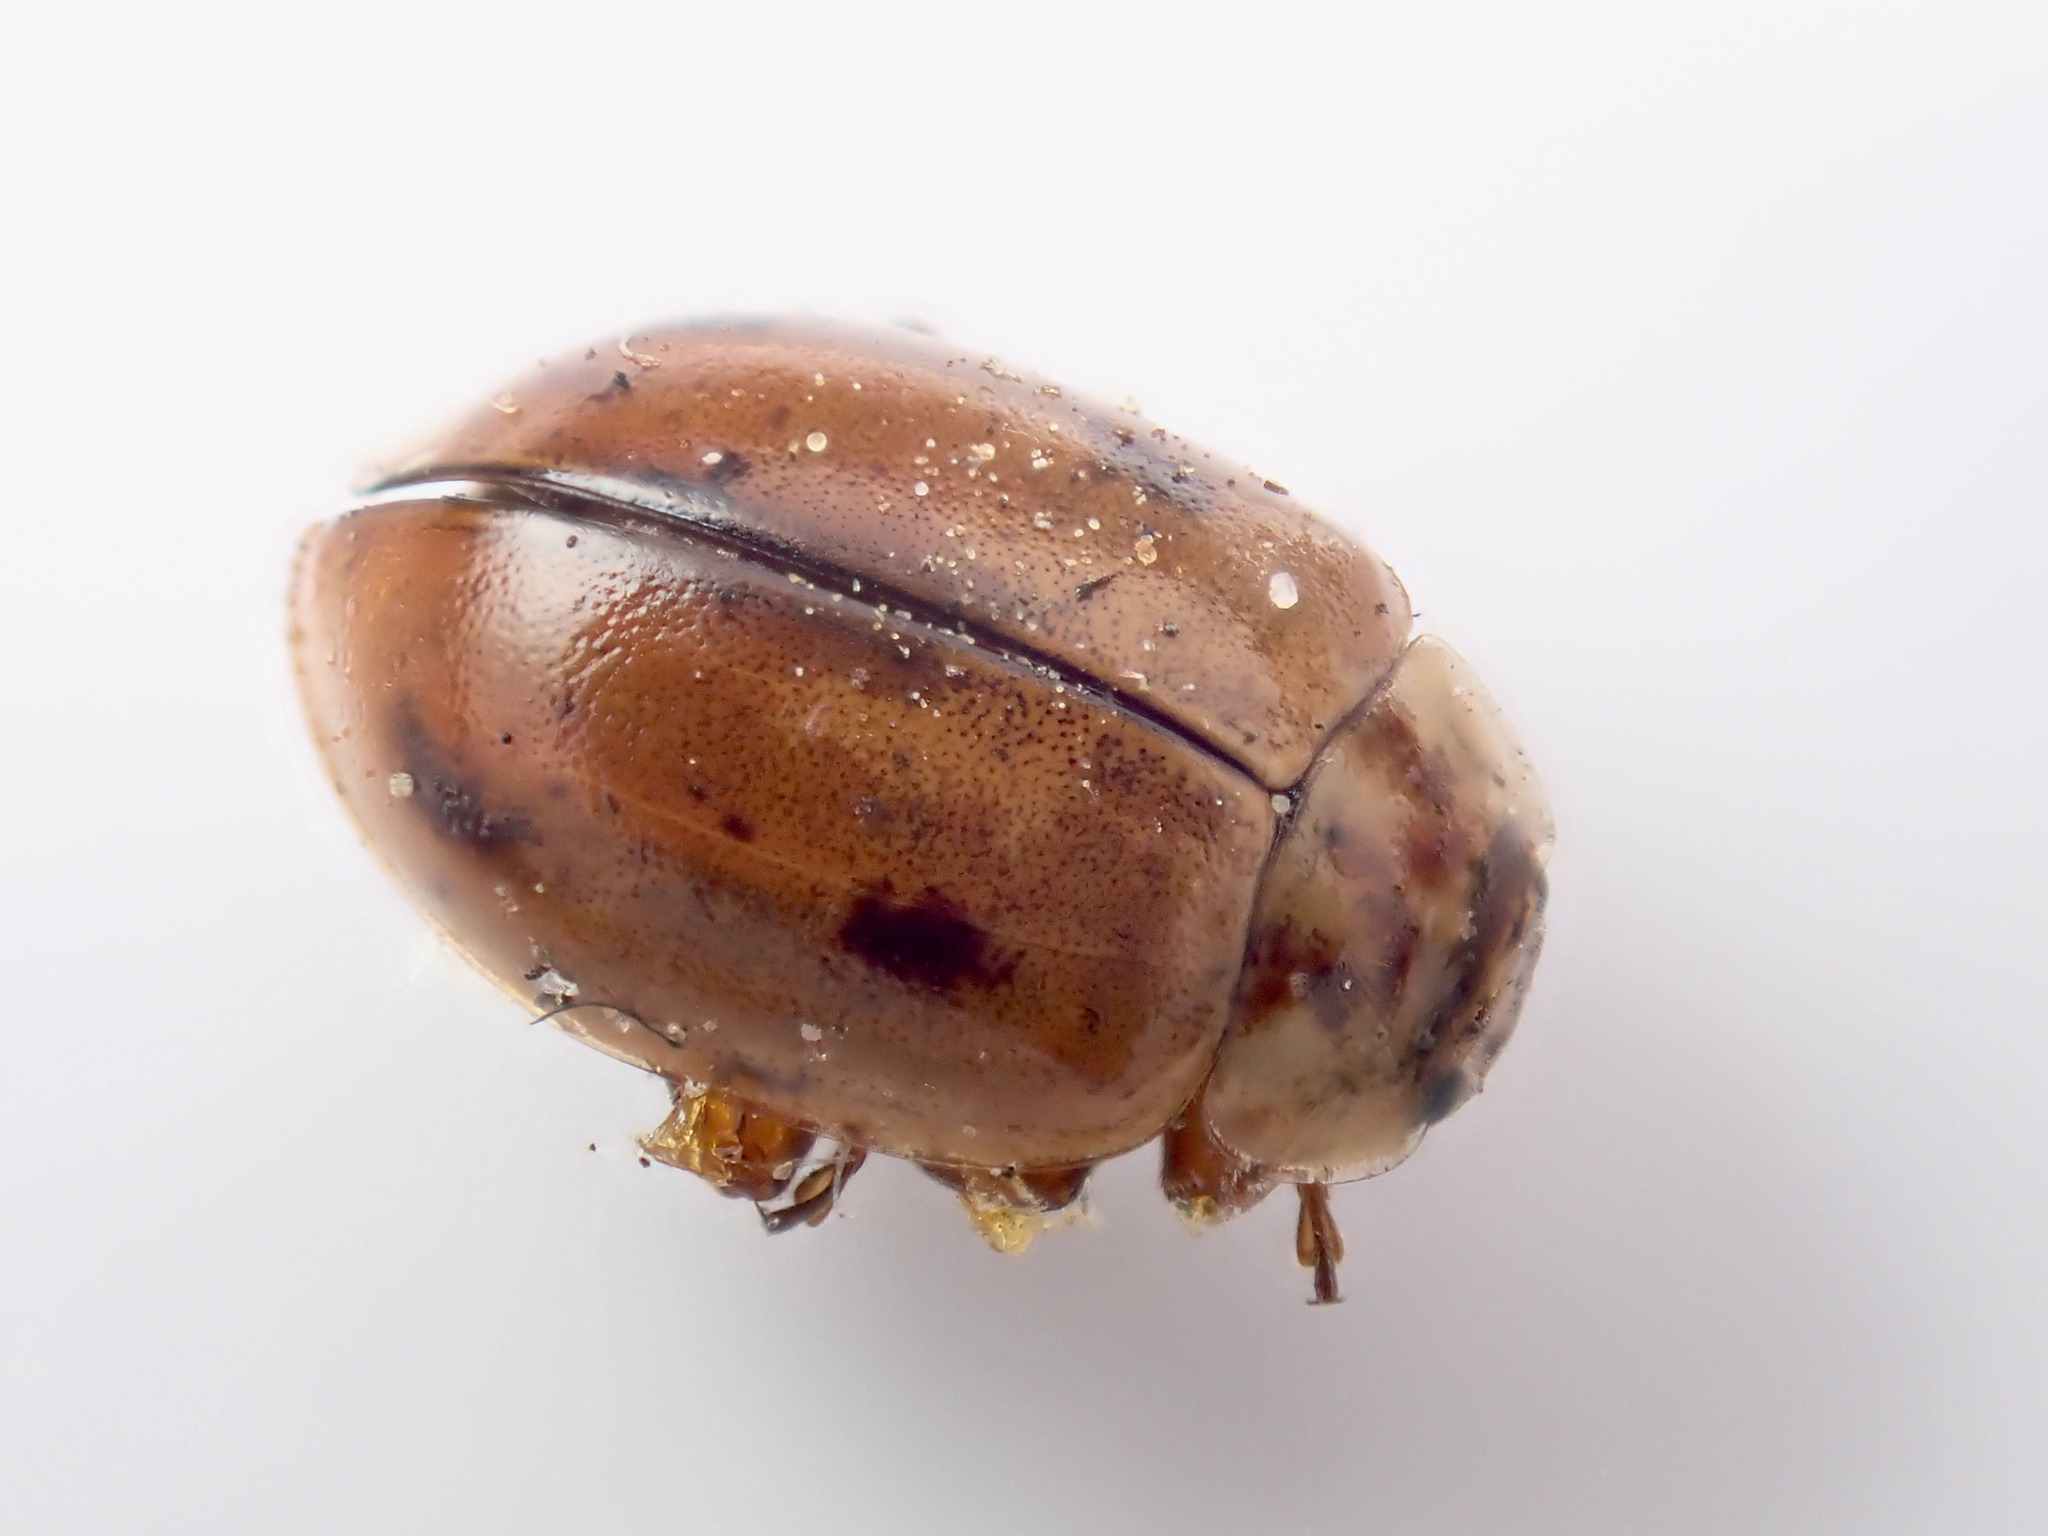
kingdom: Animalia
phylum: Arthropoda
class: Insecta
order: Coleoptera
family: Coccinellidae
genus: Aphidecta
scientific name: Aphidecta obliterata
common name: Larch ladybird
